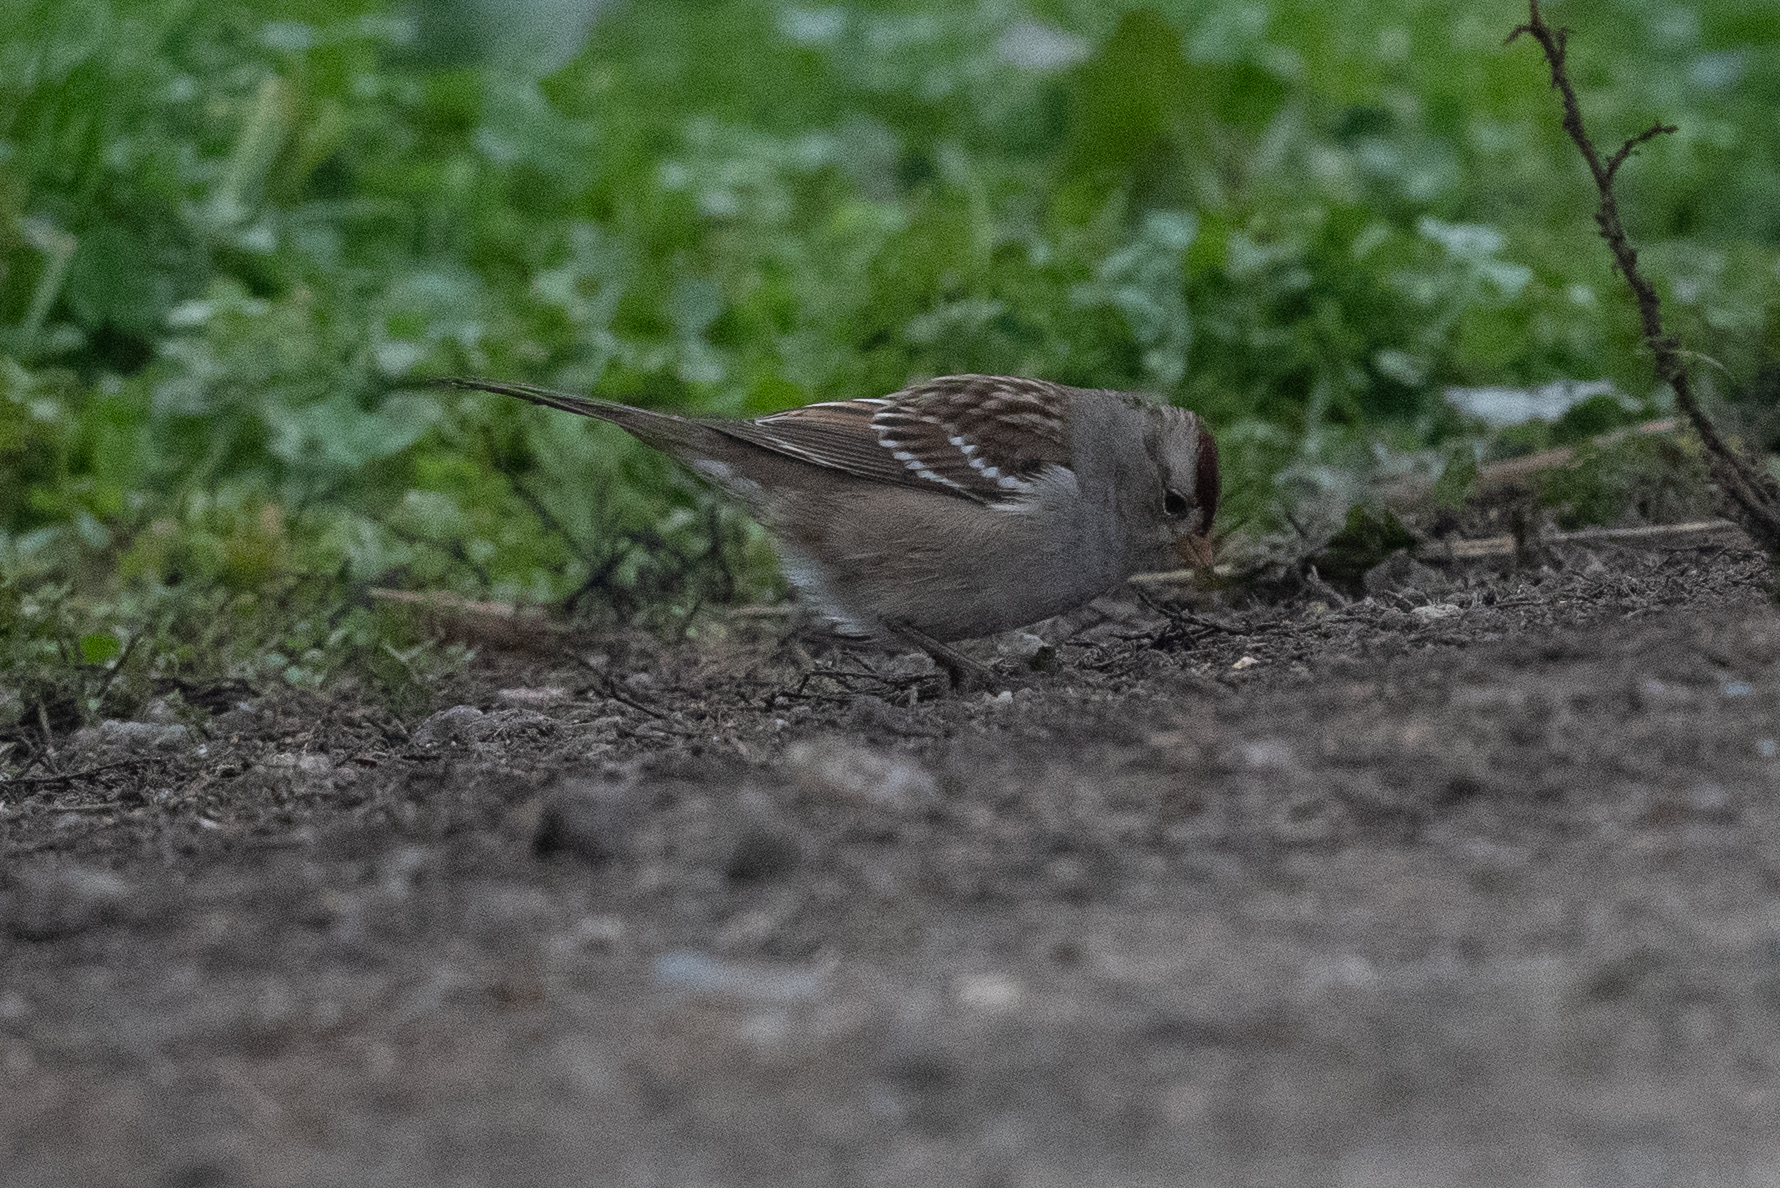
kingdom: Animalia
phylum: Chordata
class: Aves
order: Passeriformes
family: Passerellidae
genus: Zonotrichia
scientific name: Zonotrichia leucophrys
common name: White-crowned sparrow
